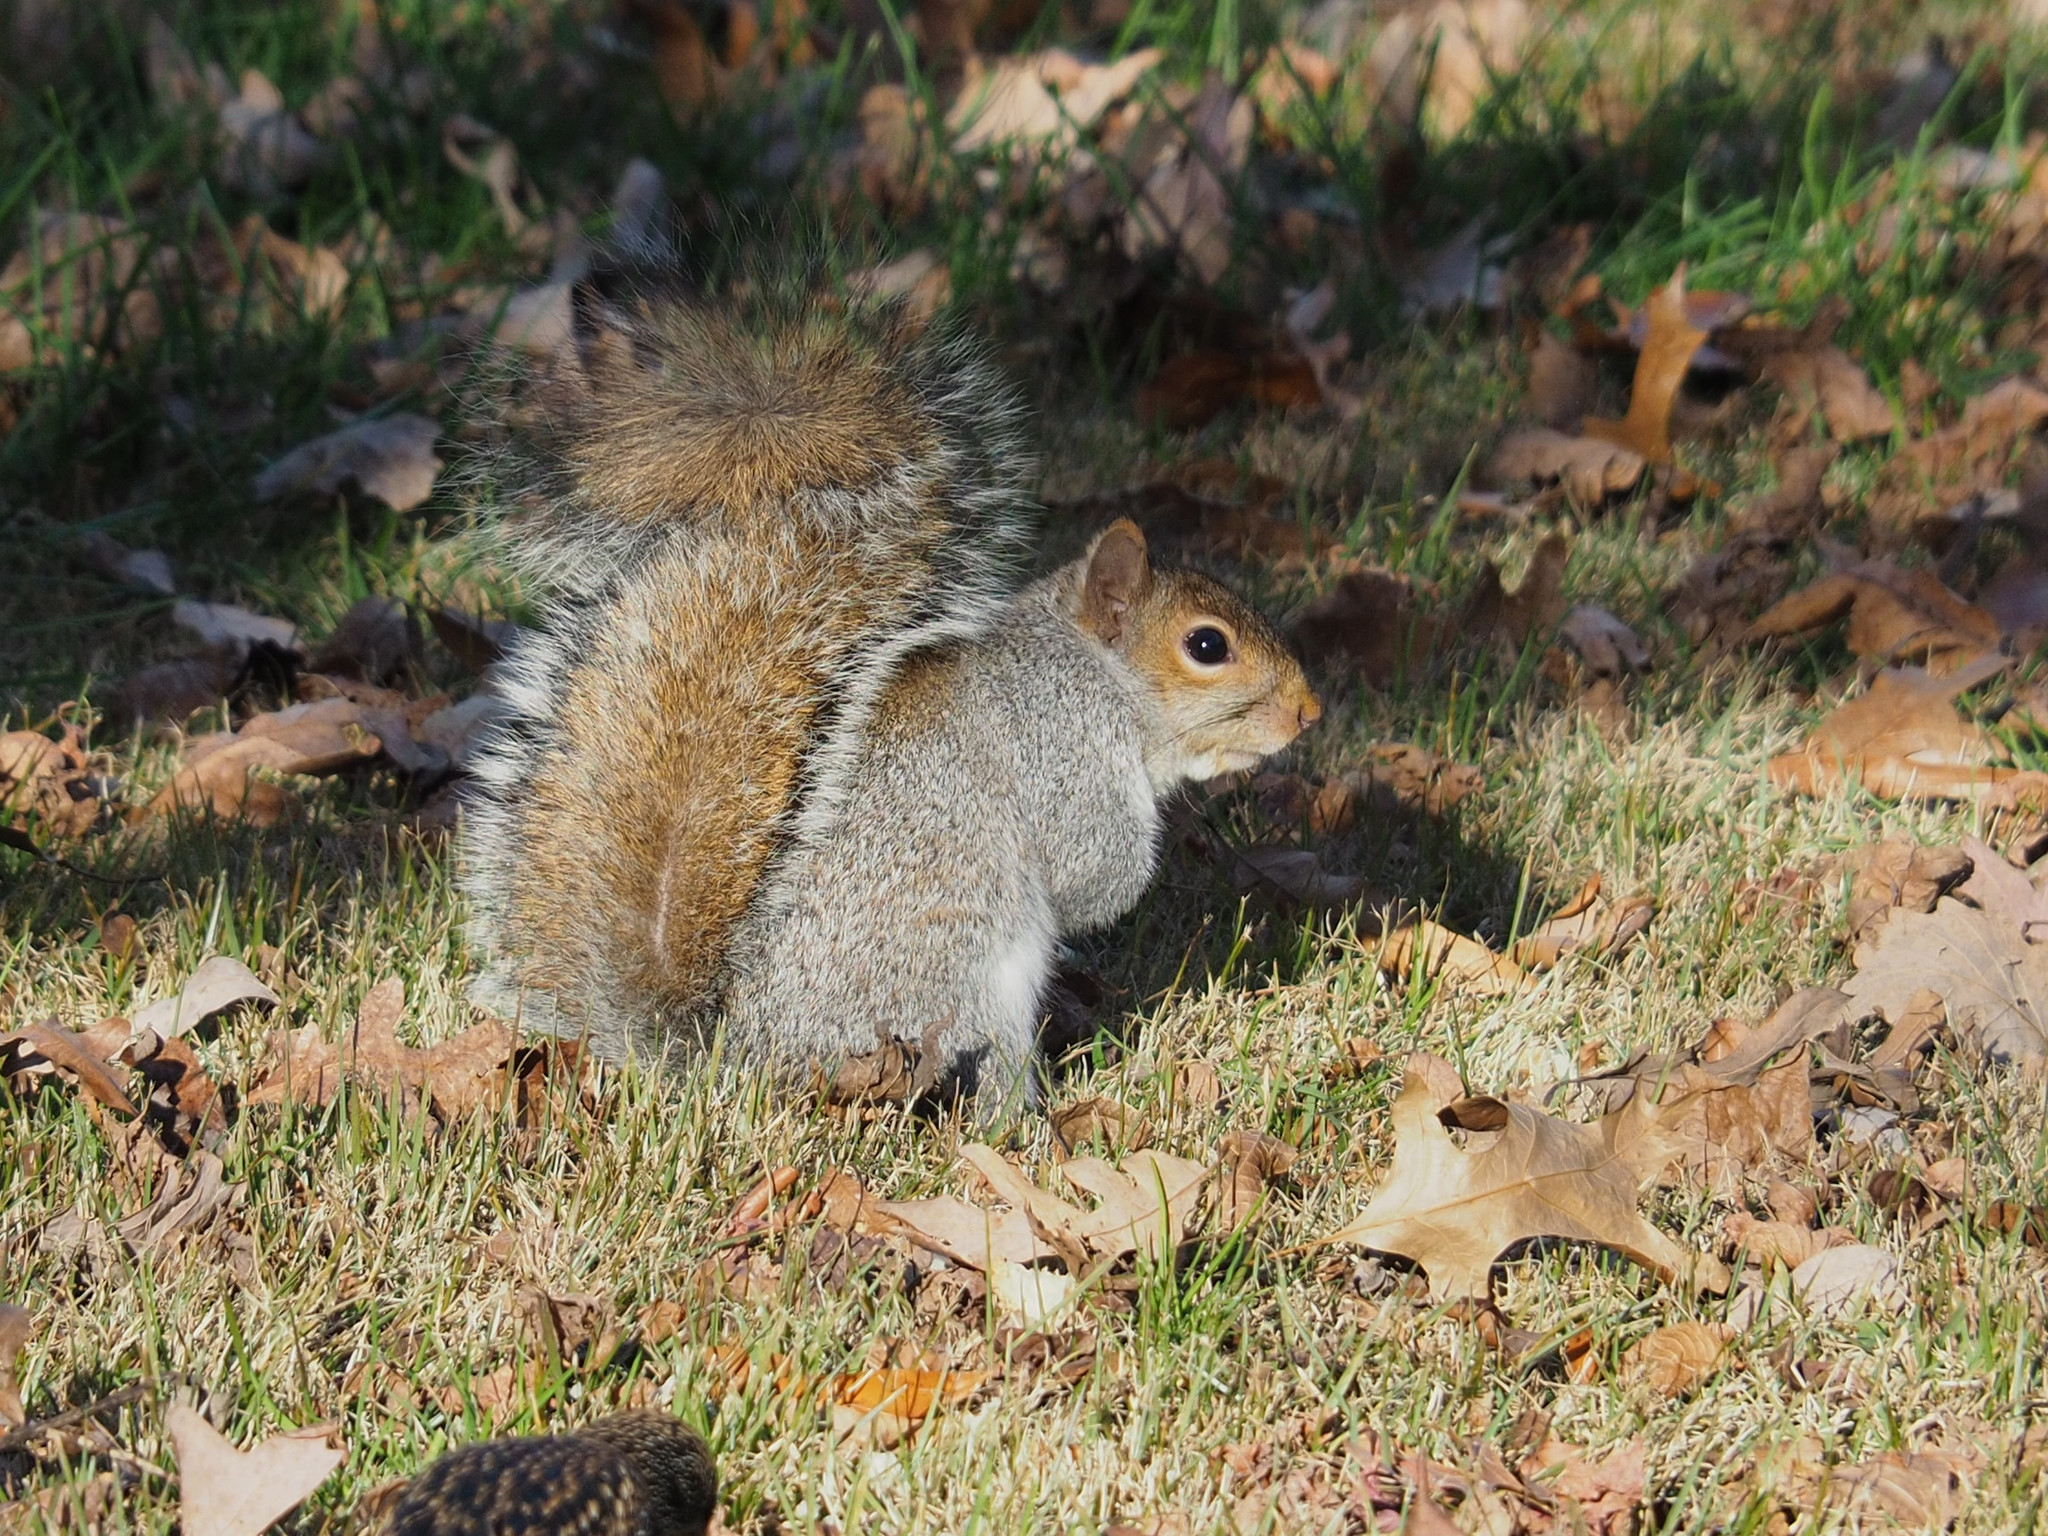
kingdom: Animalia
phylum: Chordata
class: Mammalia
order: Rodentia
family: Sciuridae
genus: Sciurus
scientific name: Sciurus carolinensis
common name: Eastern gray squirrel
